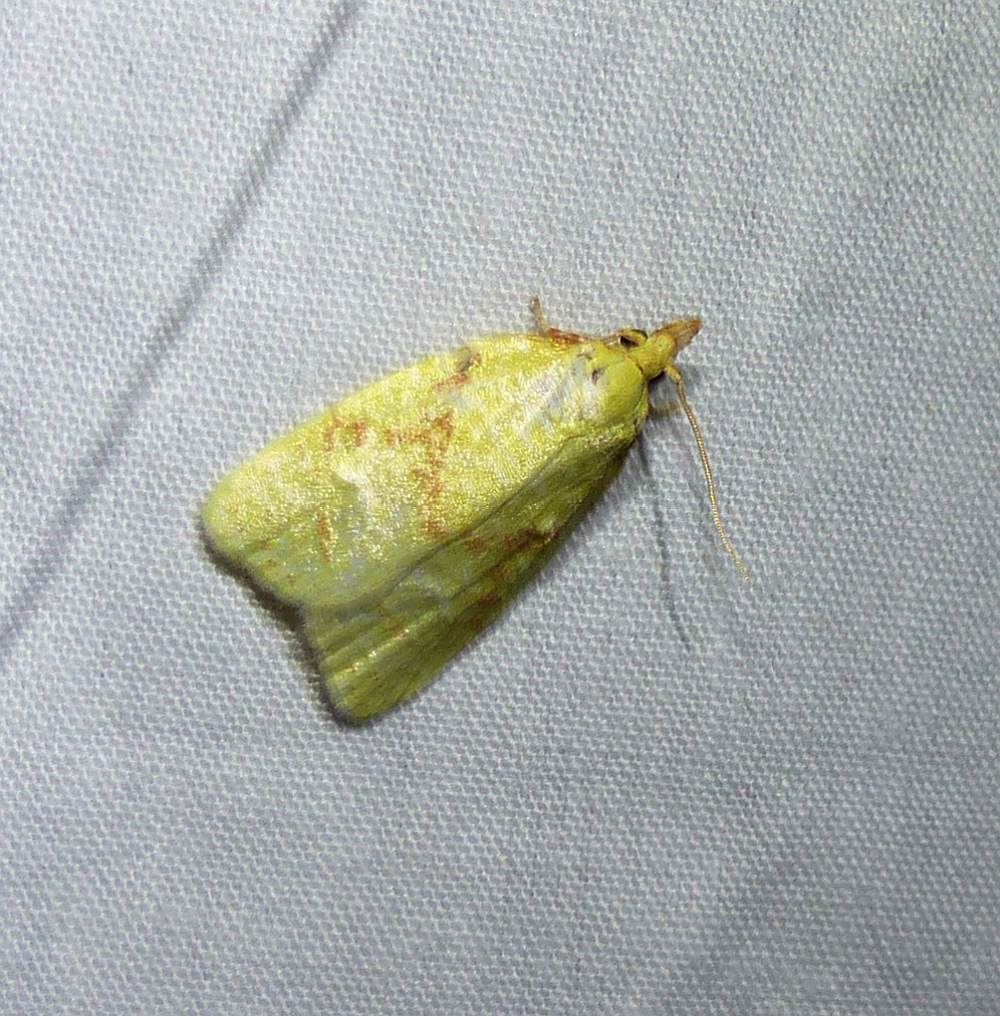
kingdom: Animalia
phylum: Arthropoda
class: Insecta
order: Lepidoptera
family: Tortricidae
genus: Cenopis
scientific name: Cenopis pettitana
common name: Maple-basswood leafroller moth
